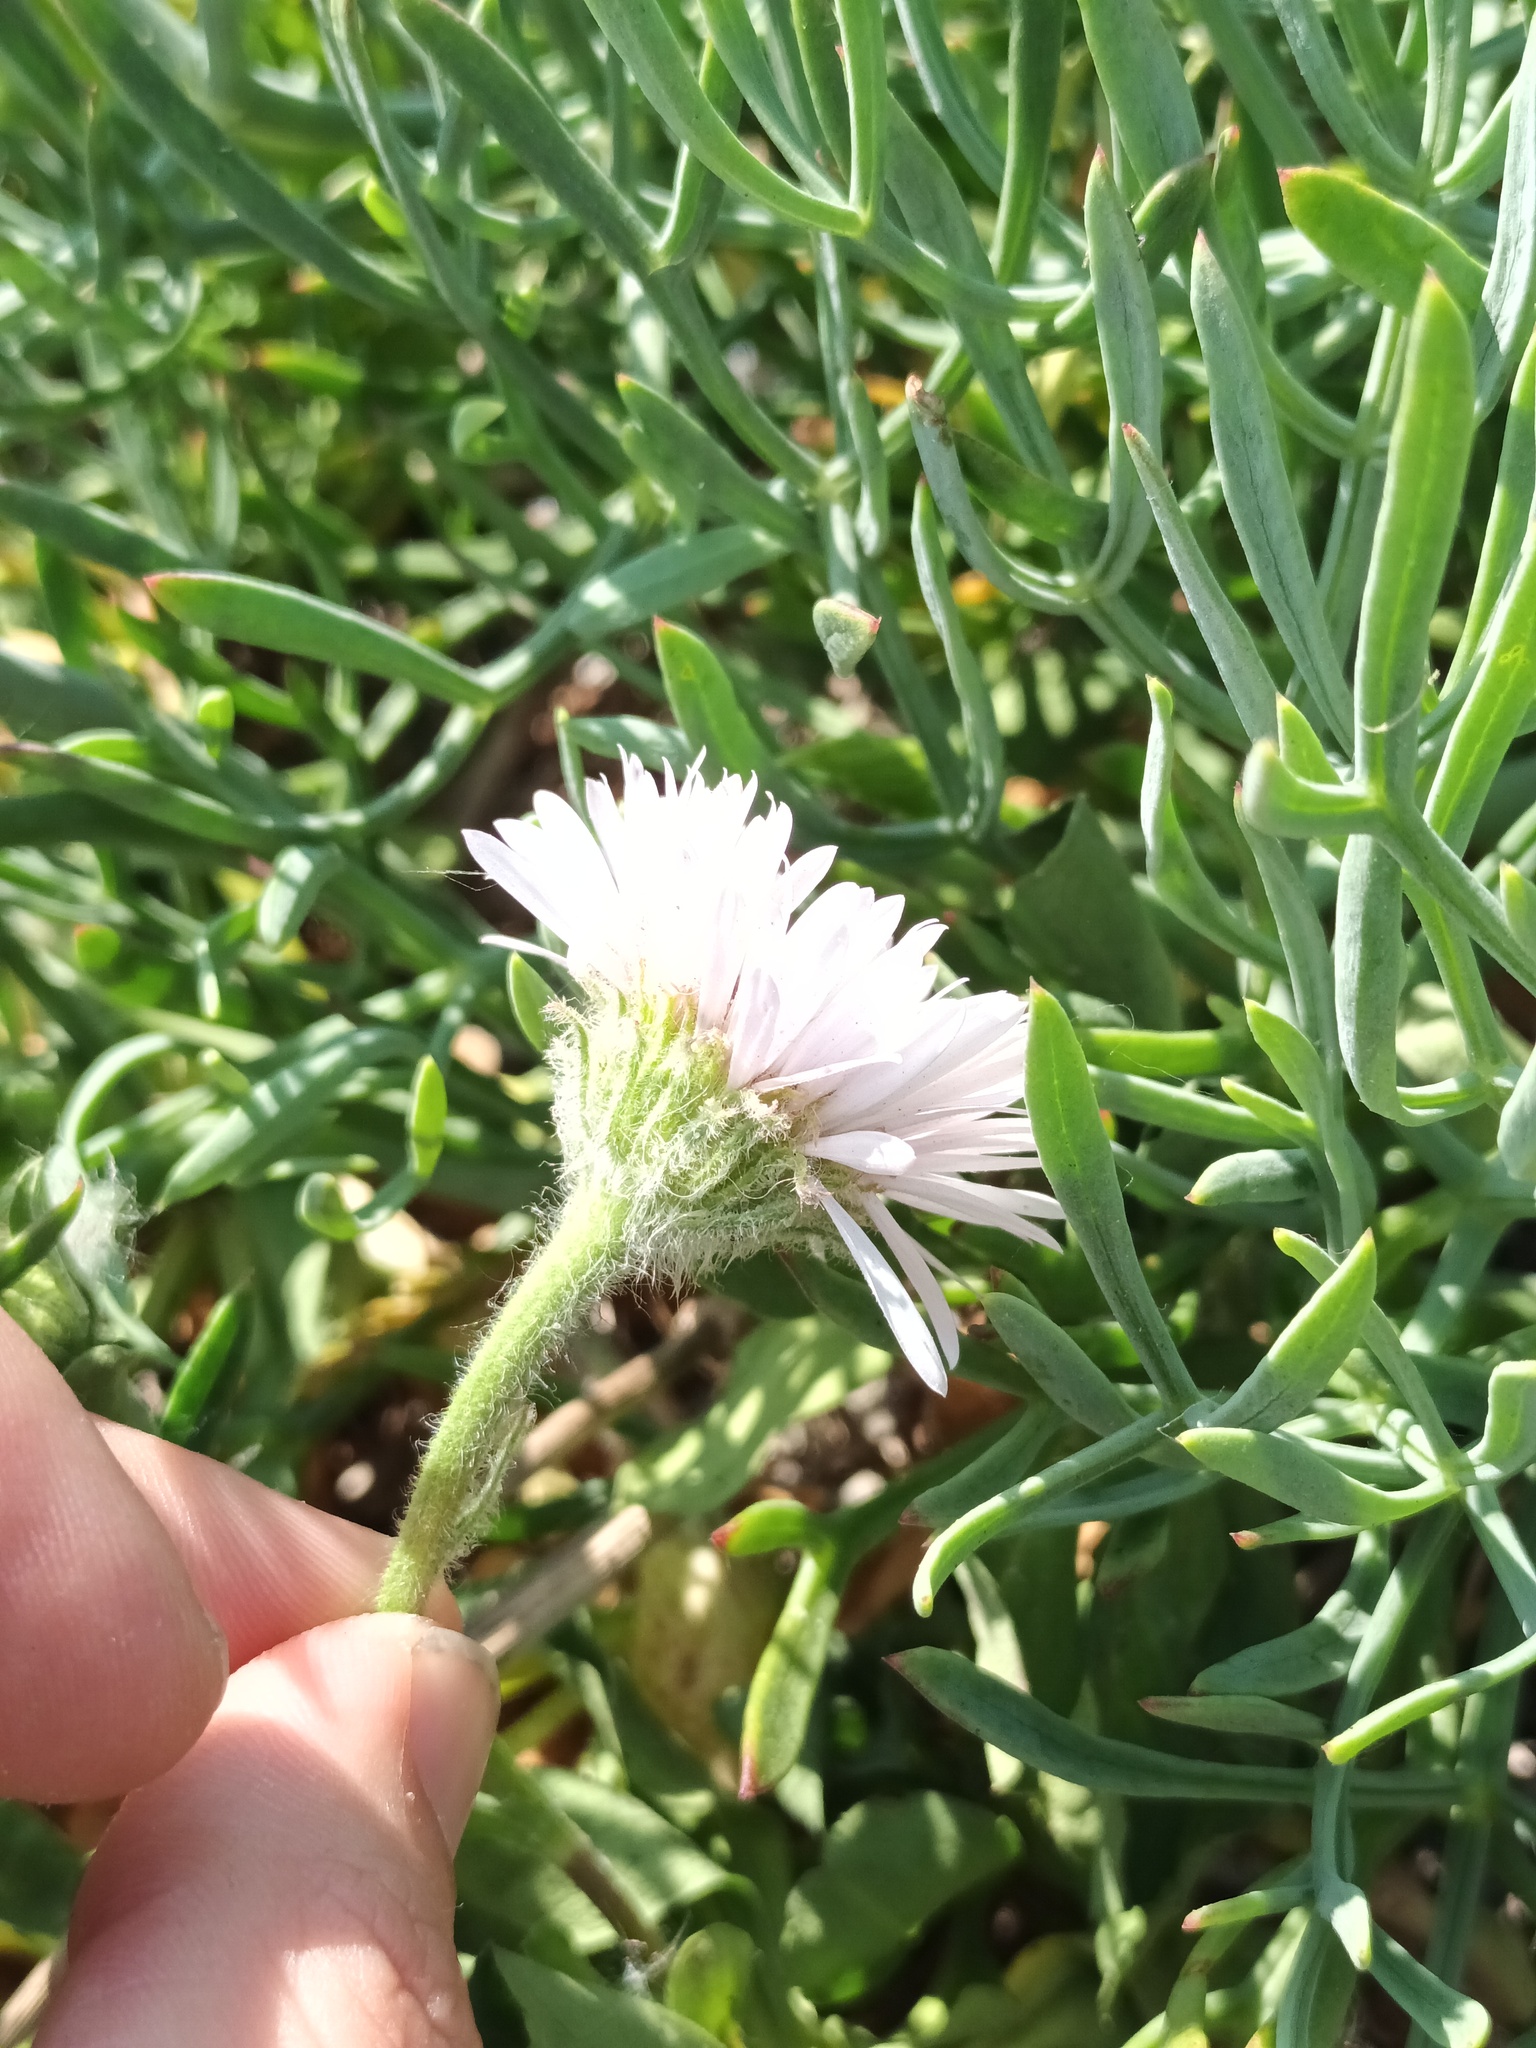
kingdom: Plantae
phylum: Tracheophyta
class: Magnoliopsida
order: Asterales
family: Asteraceae
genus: Erigeron
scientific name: Erigeron glaucus
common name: Seaside daisy
